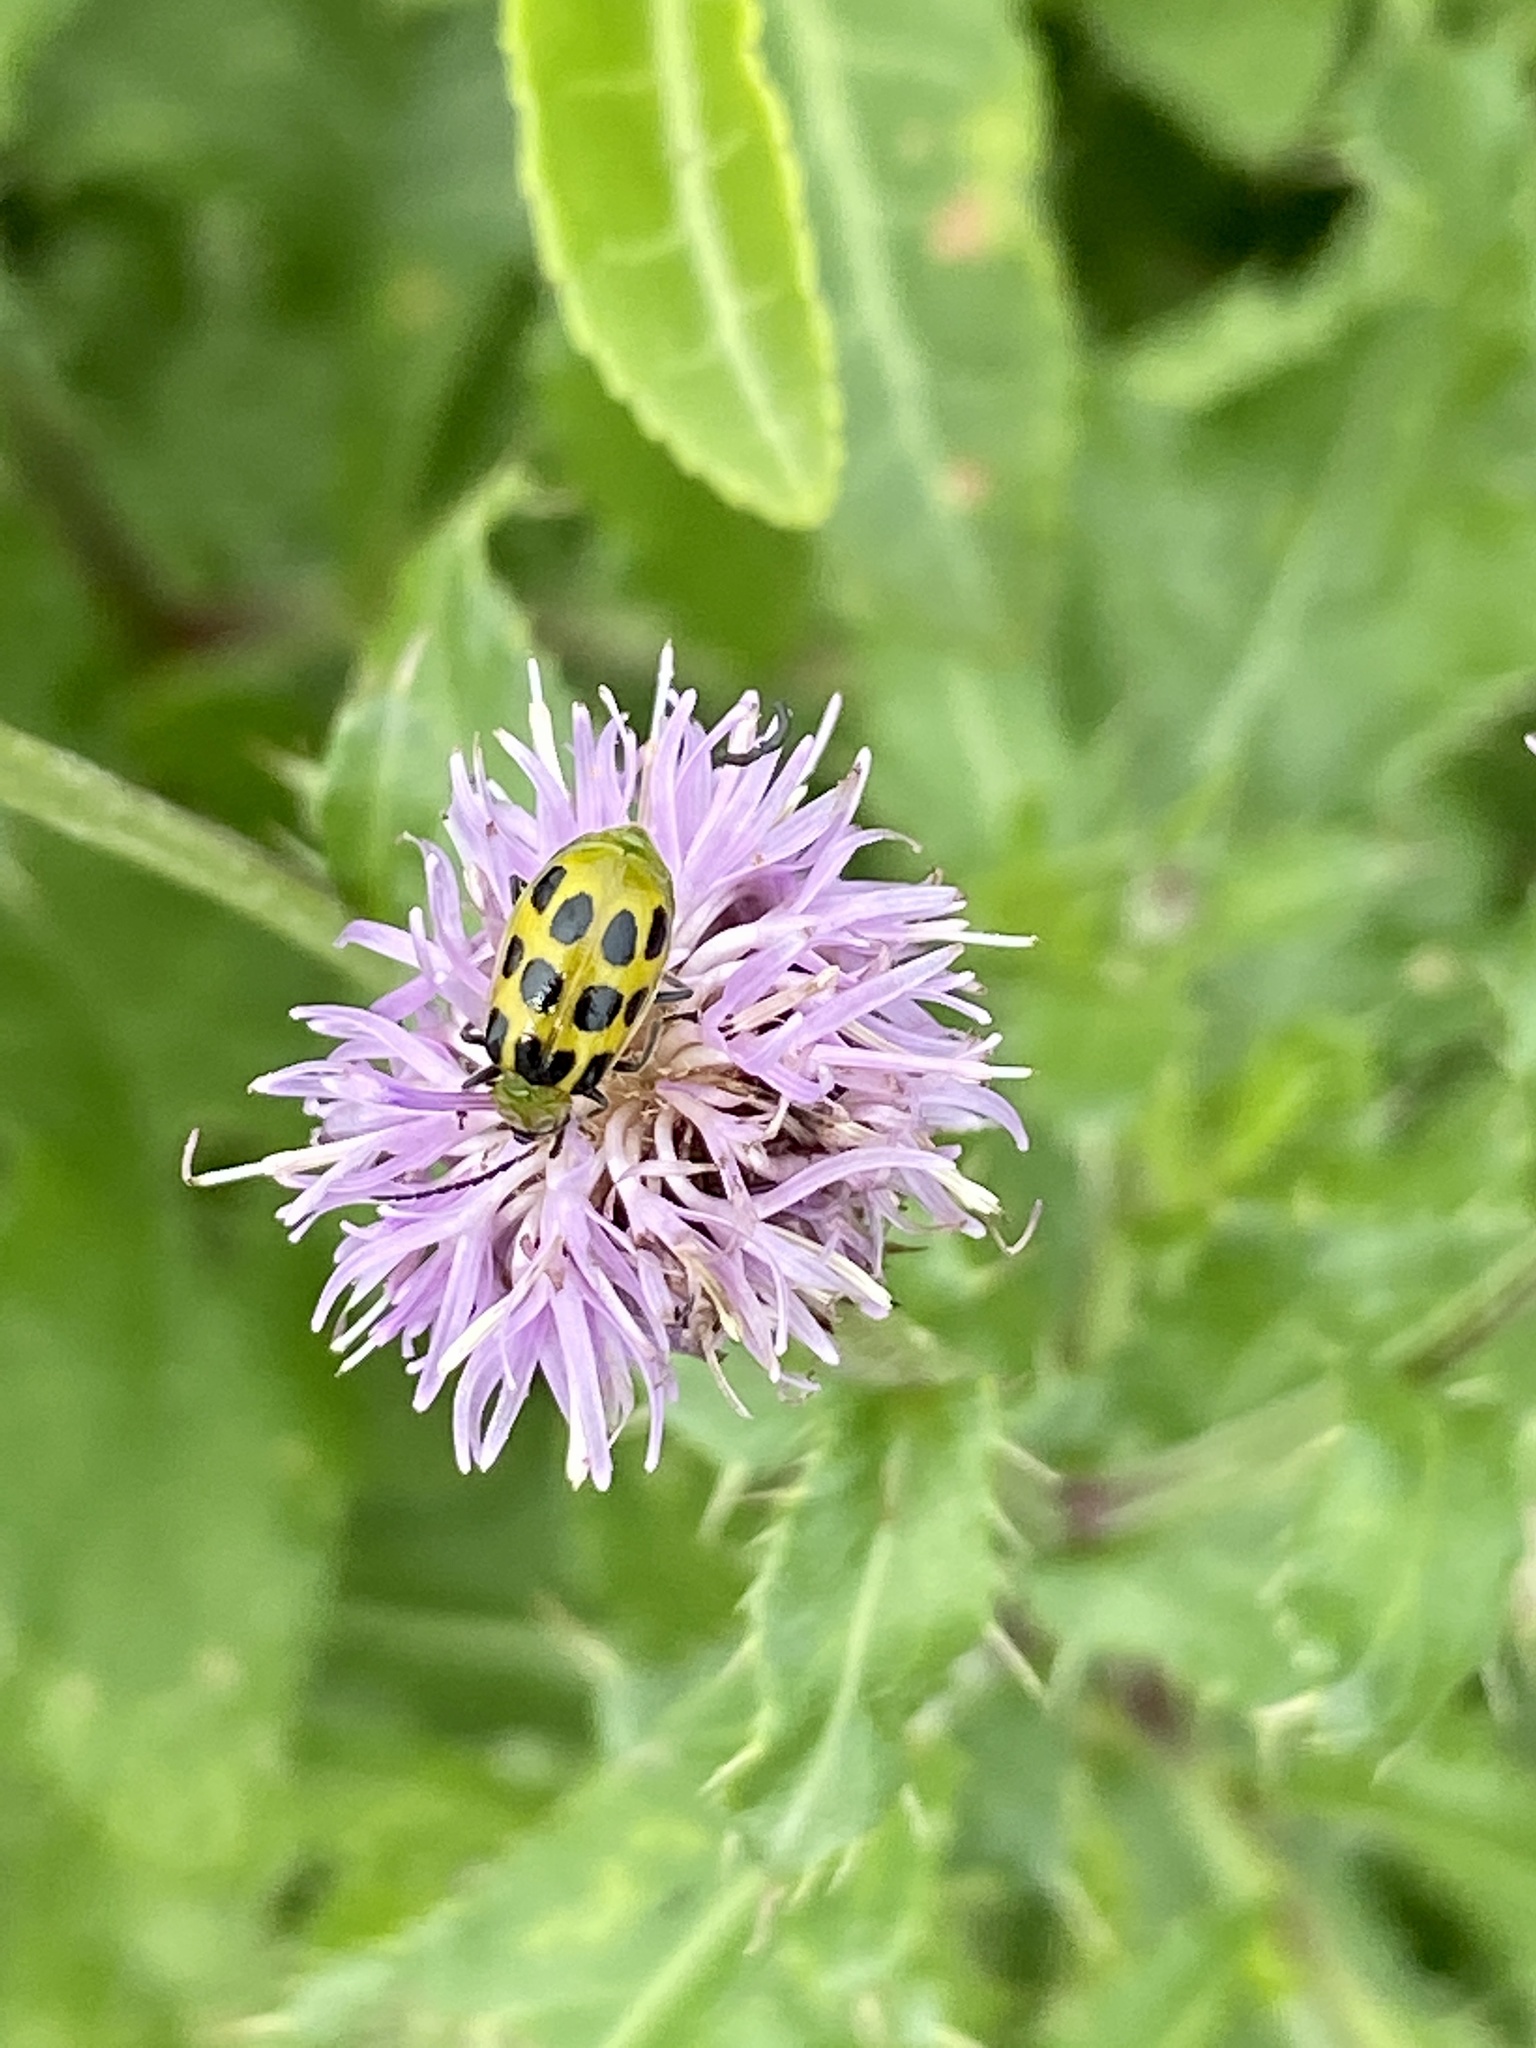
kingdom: Animalia
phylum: Arthropoda
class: Insecta
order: Coleoptera
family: Chrysomelidae
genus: Diabrotica
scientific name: Diabrotica undecimpunctata
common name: Spotted cucumber beetle
